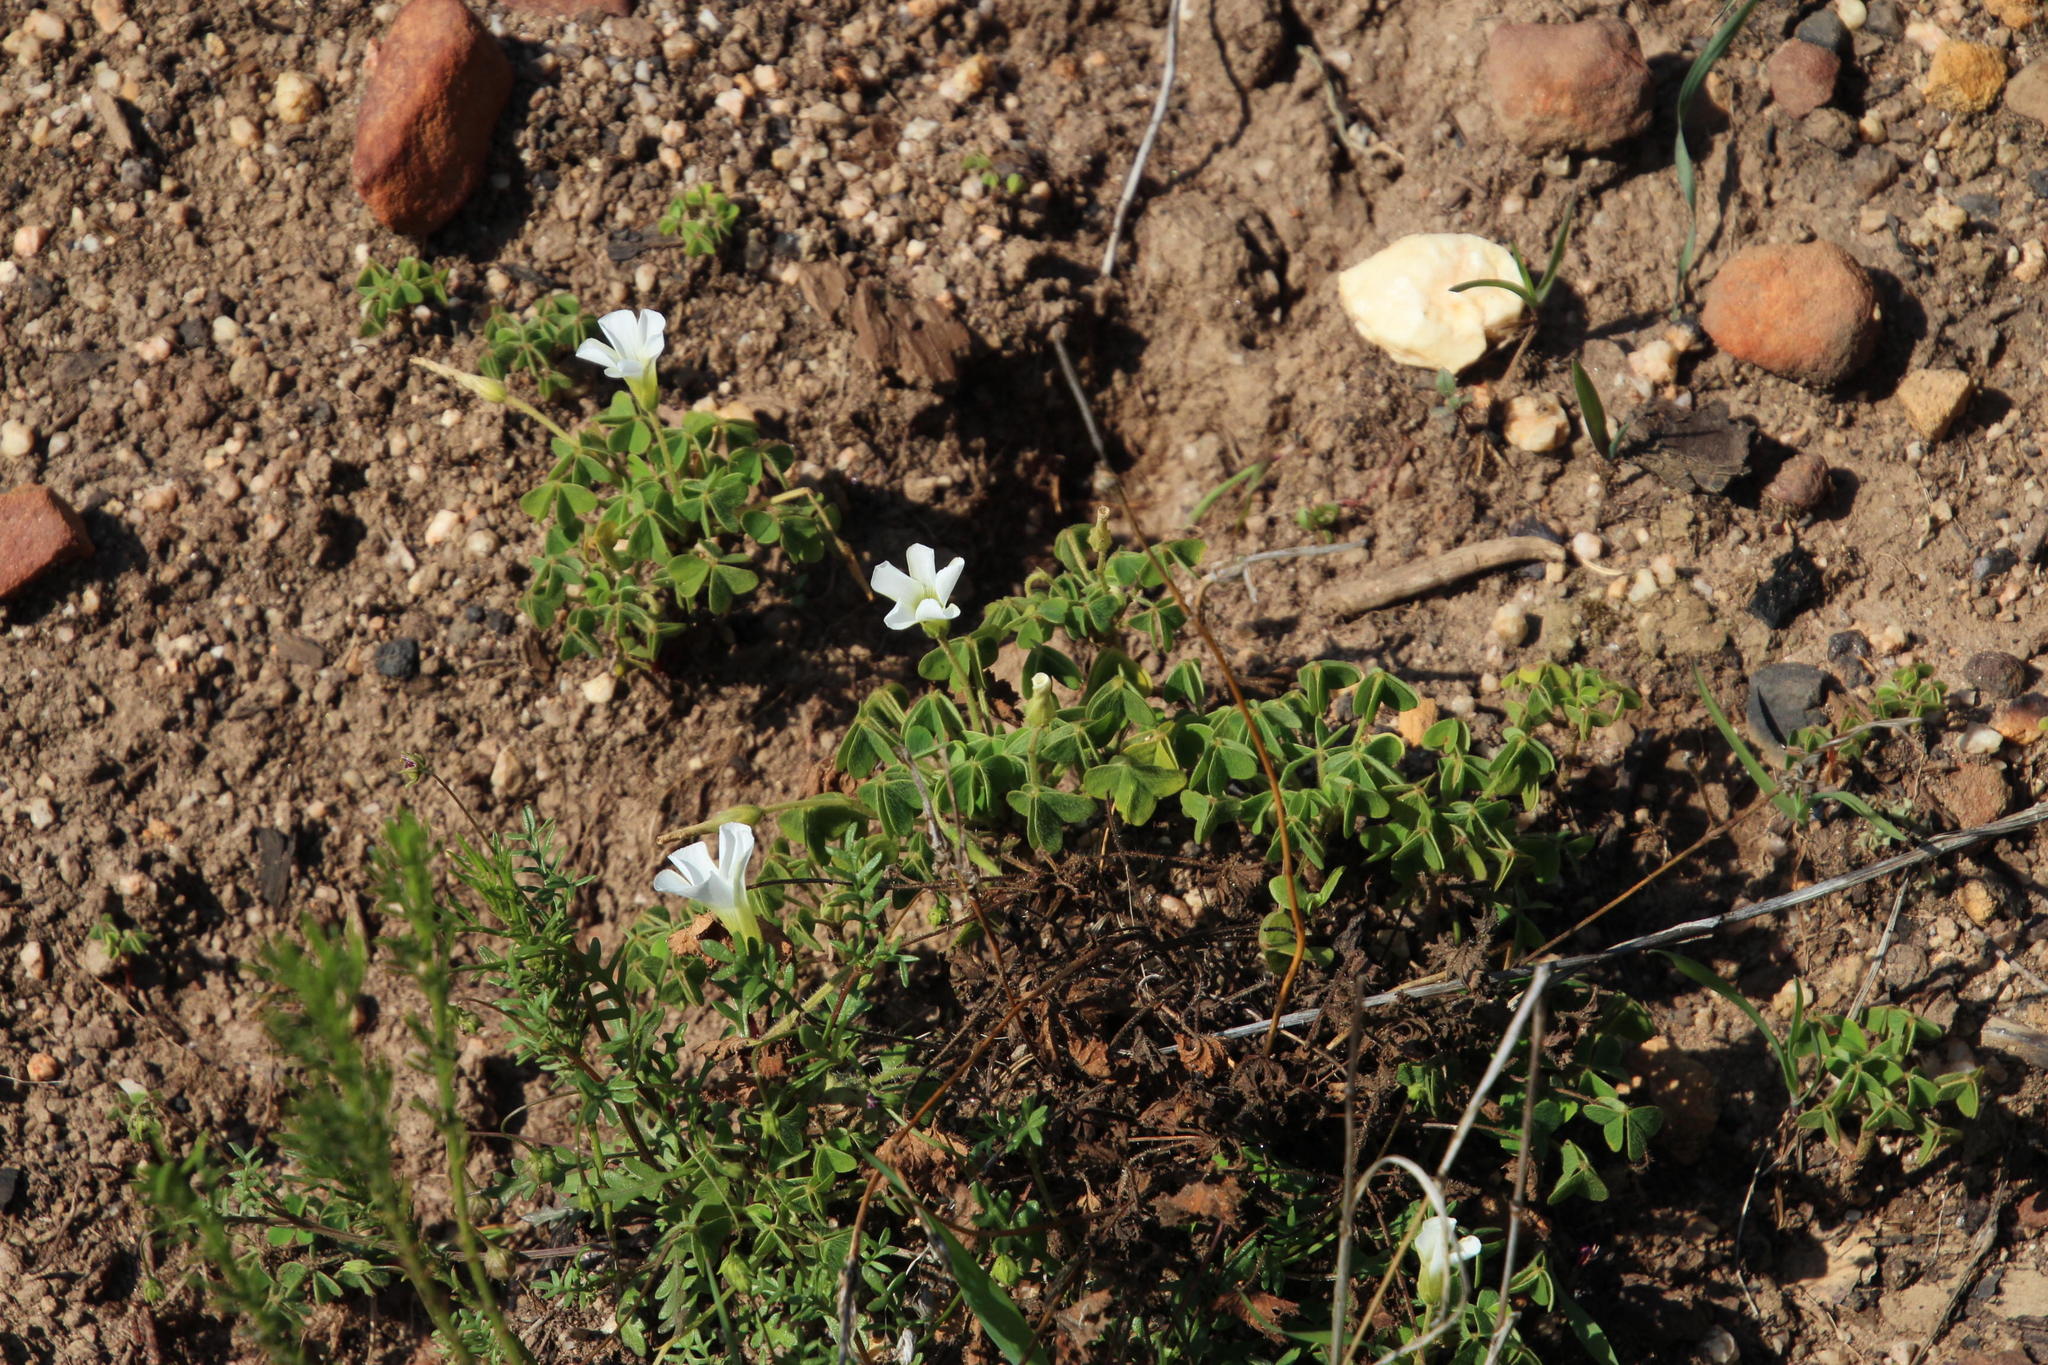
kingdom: Plantae
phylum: Tracheophyta
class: Magnoliopsida
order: Oxalidales
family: Oxalidaceae
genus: Oxalis
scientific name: Oxalis lanata
